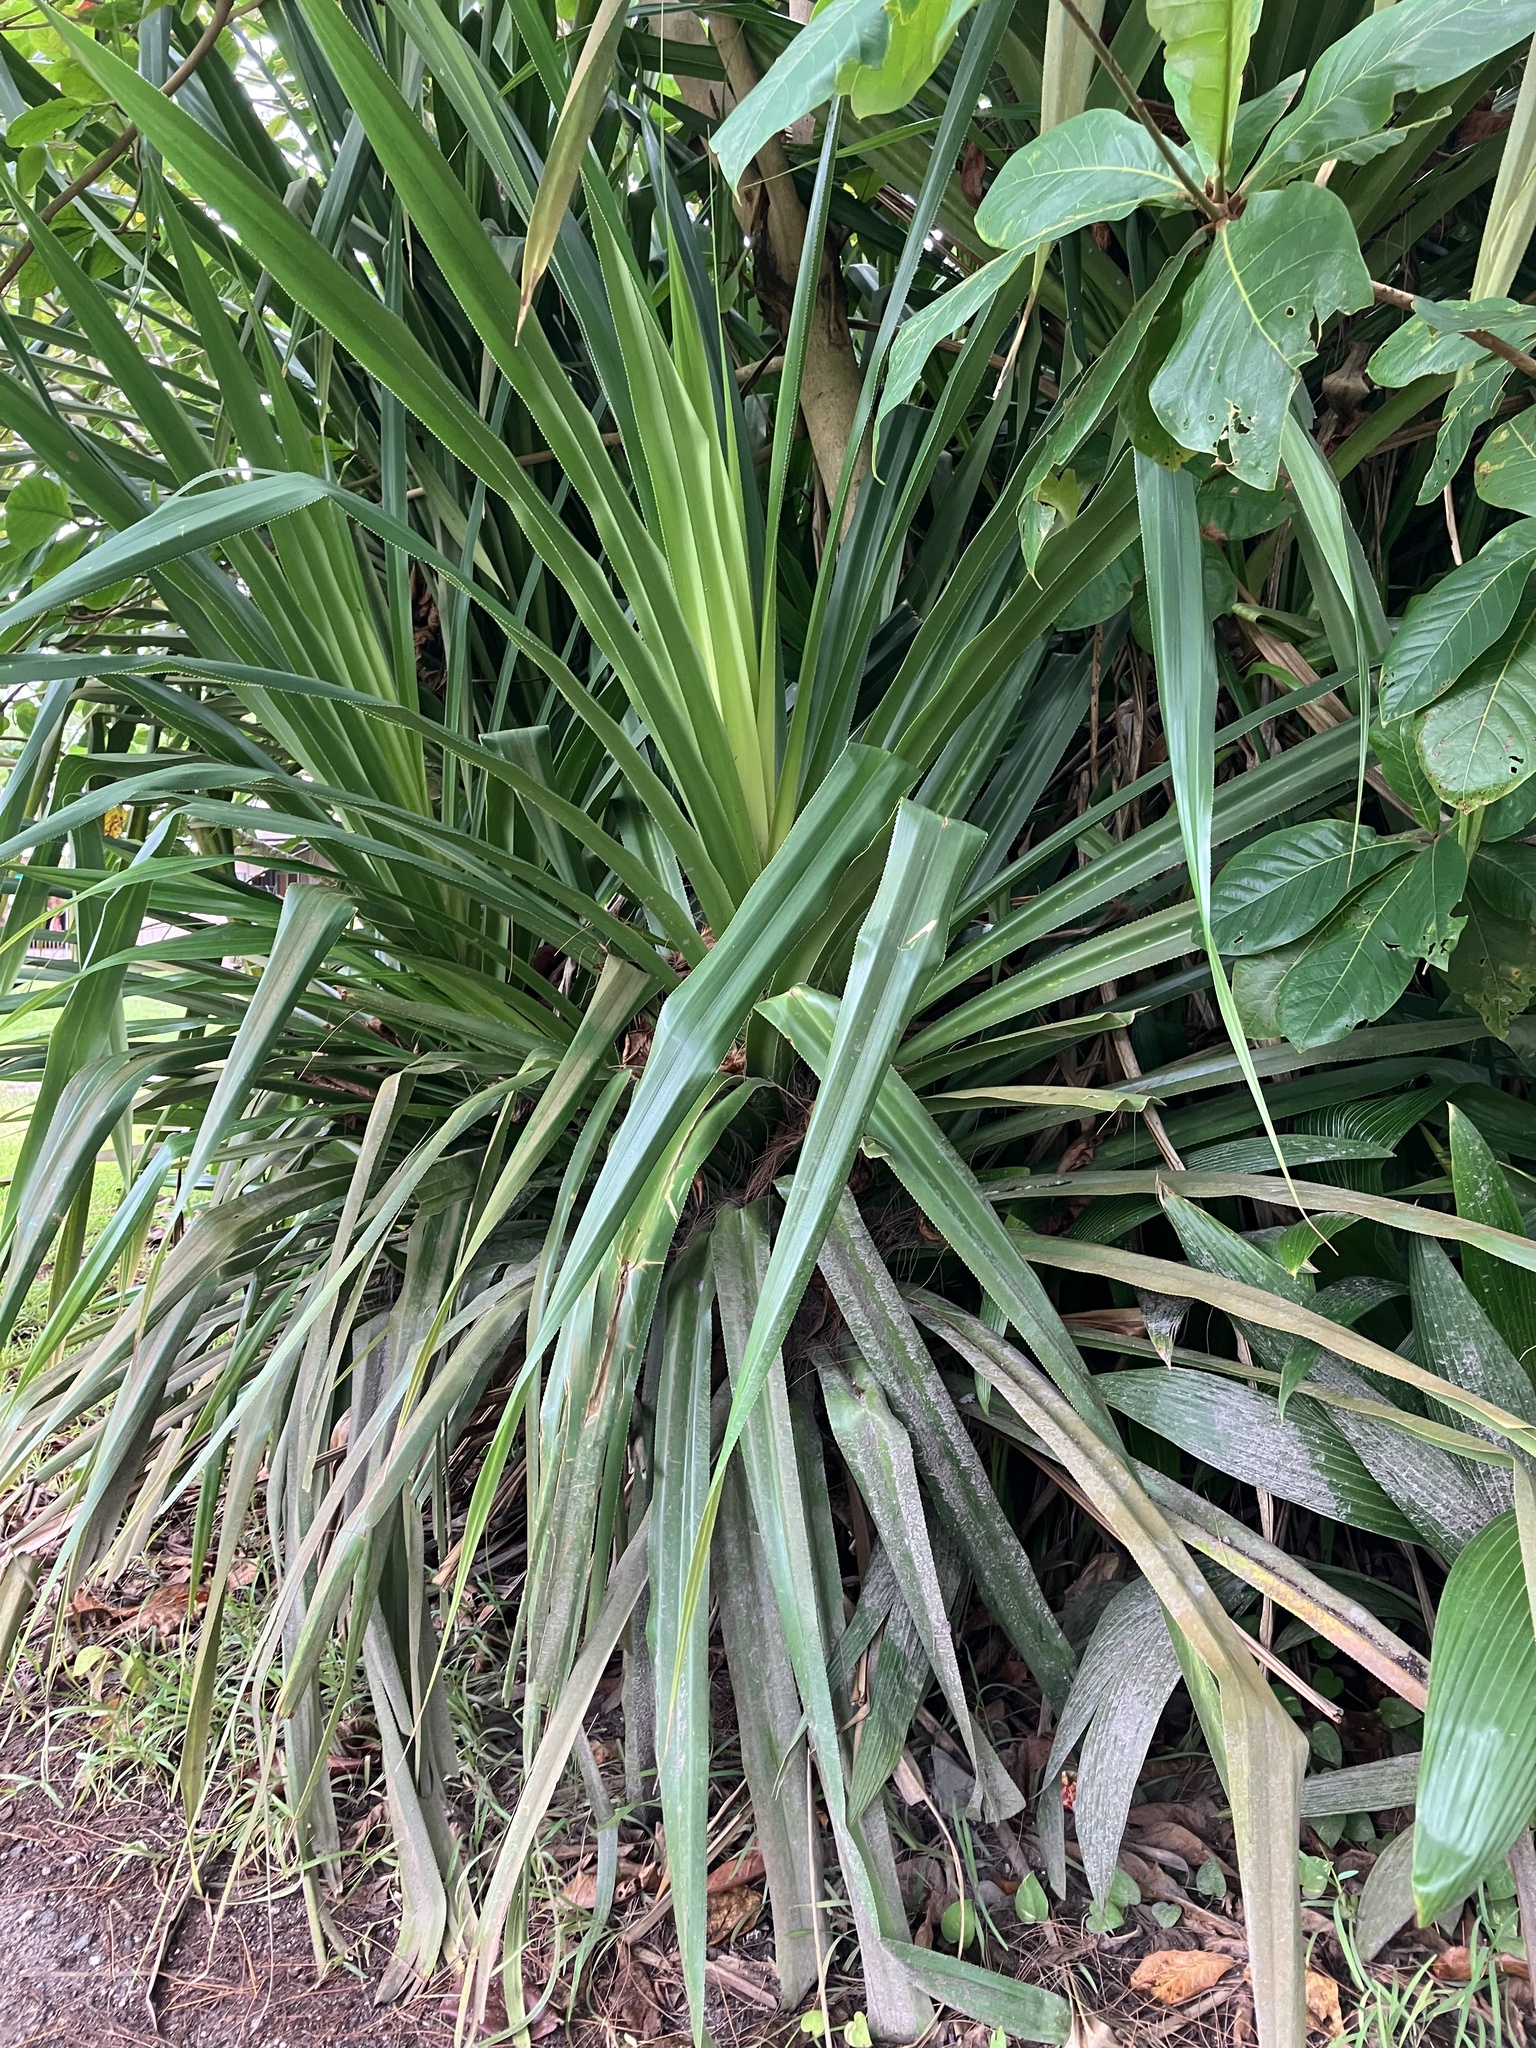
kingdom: Plantae
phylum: Tracheophyta
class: Liliopsida
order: Pandanales
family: Pandanaceae
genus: Pandanus
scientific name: Pandanus tectorius
